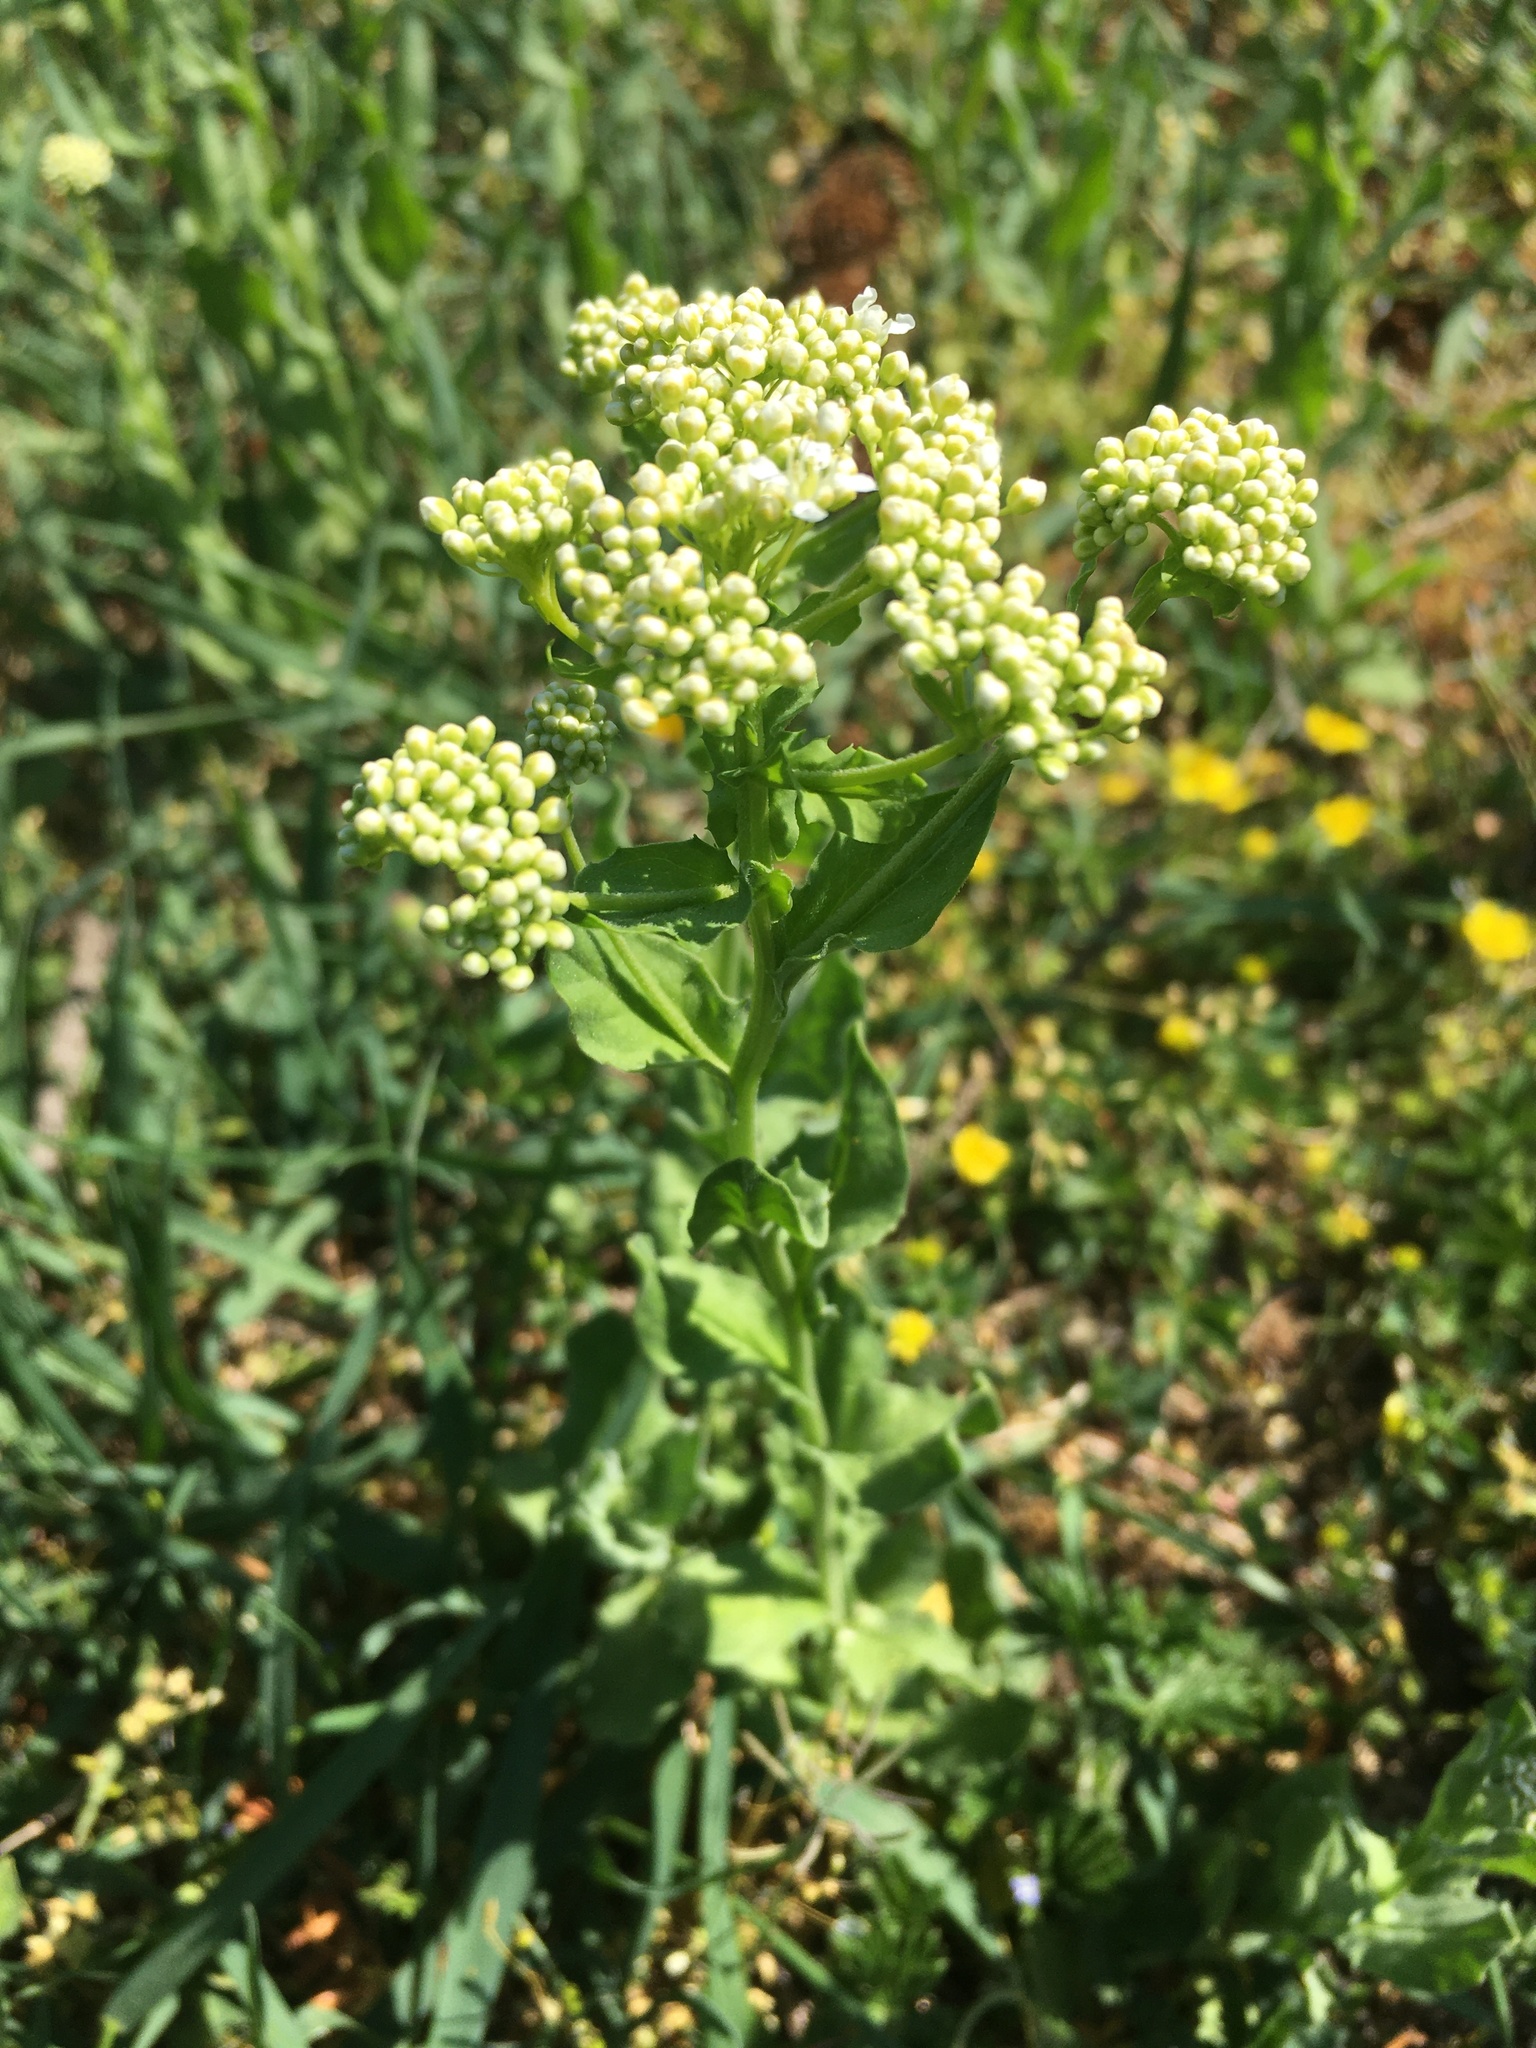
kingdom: Plantae
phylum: Tracheophyta
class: Magnoliopsida
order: Brassicales
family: Brassicaceae
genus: Lepidium
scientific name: Lepidium draba
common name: Hoary cress
